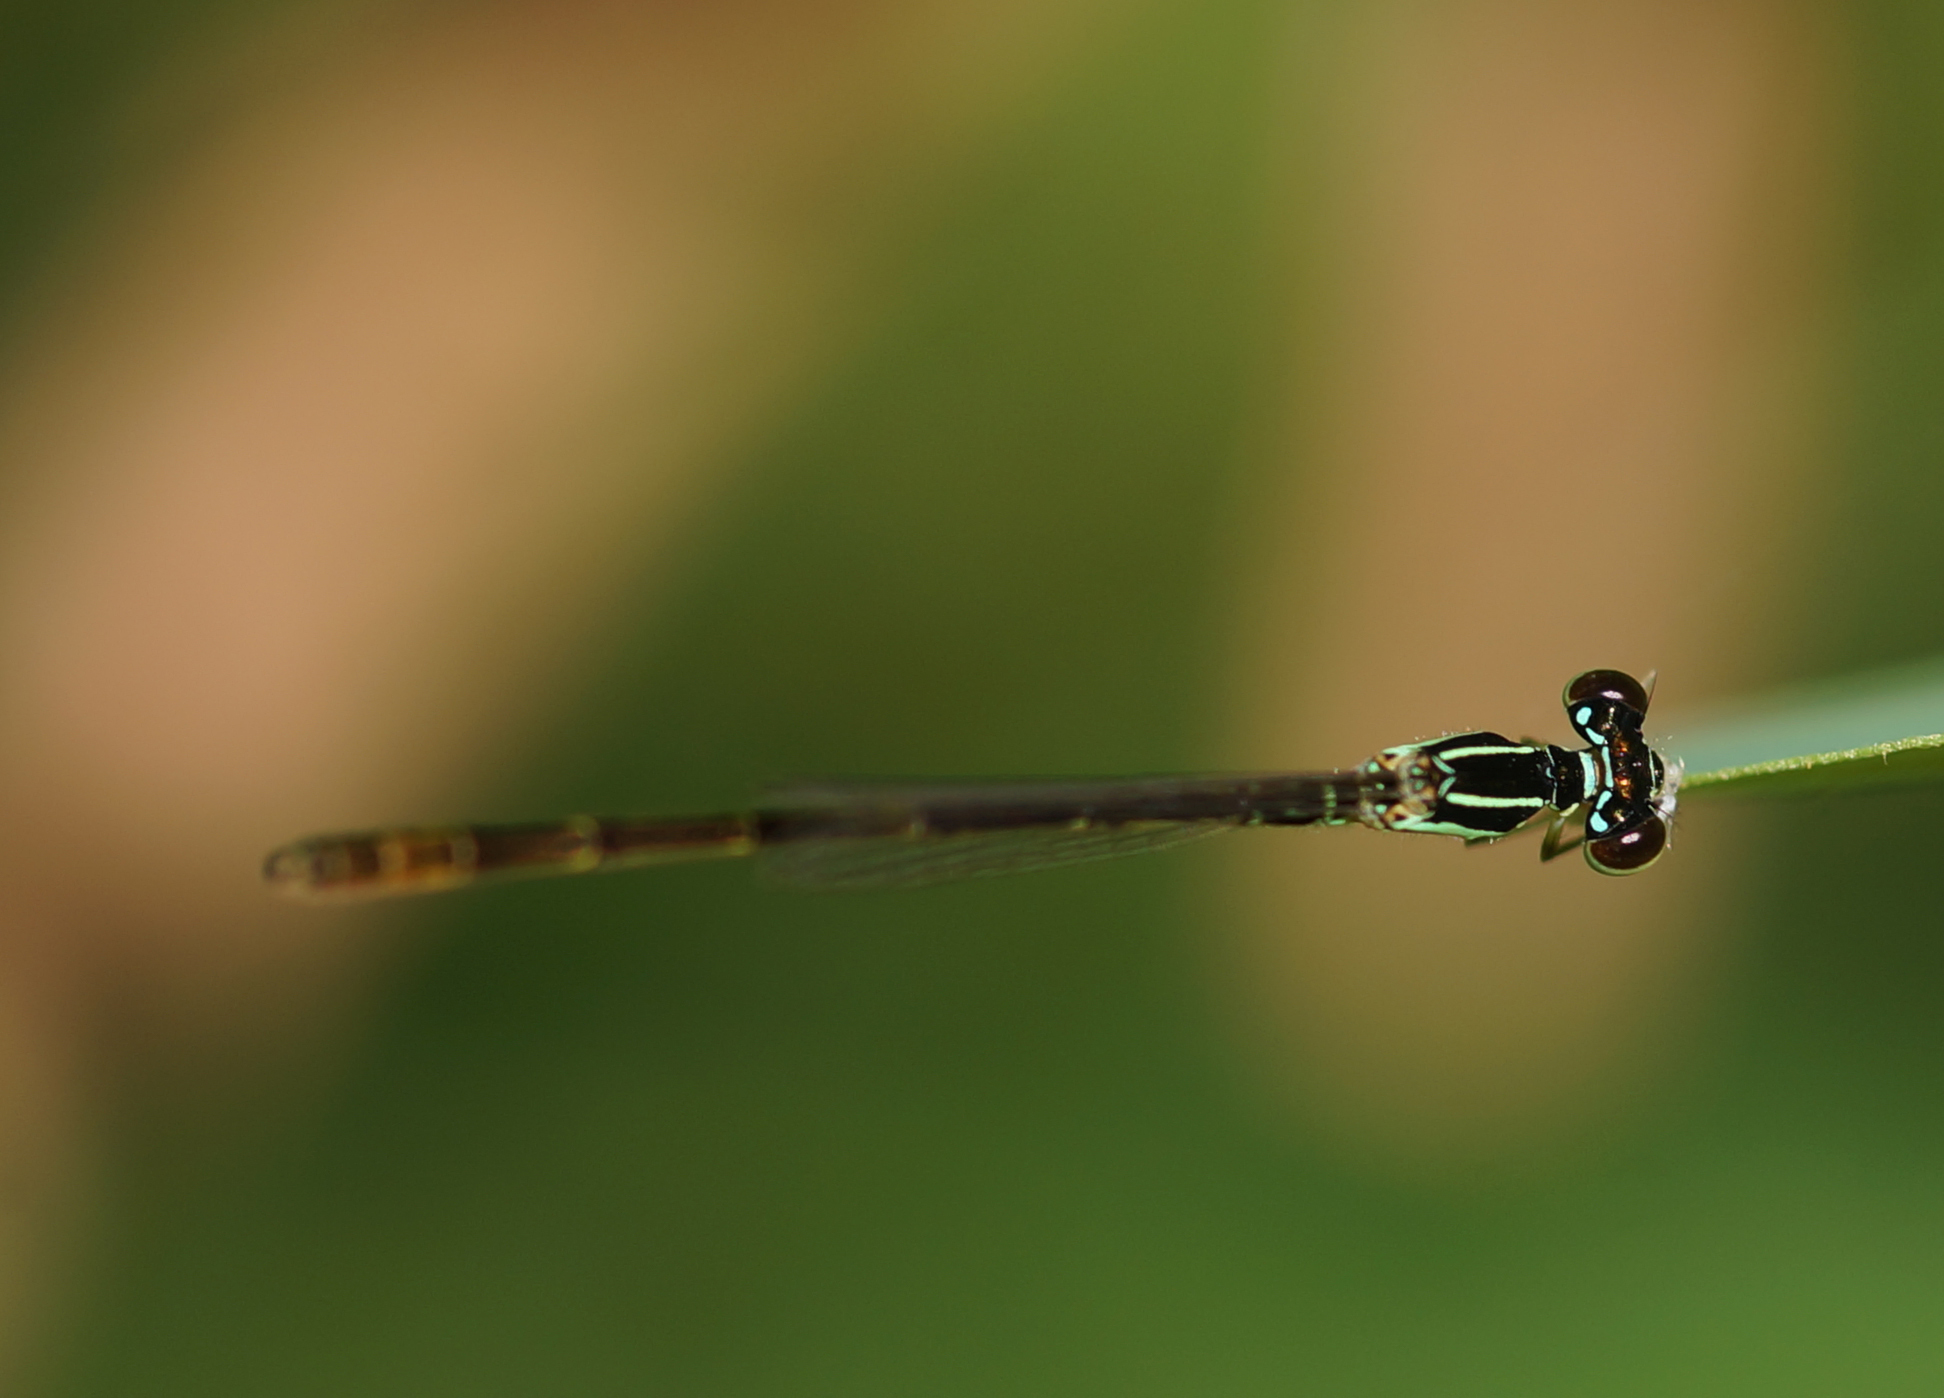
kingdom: Animalia
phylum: Arthropoda
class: Insecta
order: Odonata
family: Coenagrionidae
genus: Agriocnemis
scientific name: Agriocnemis minima
